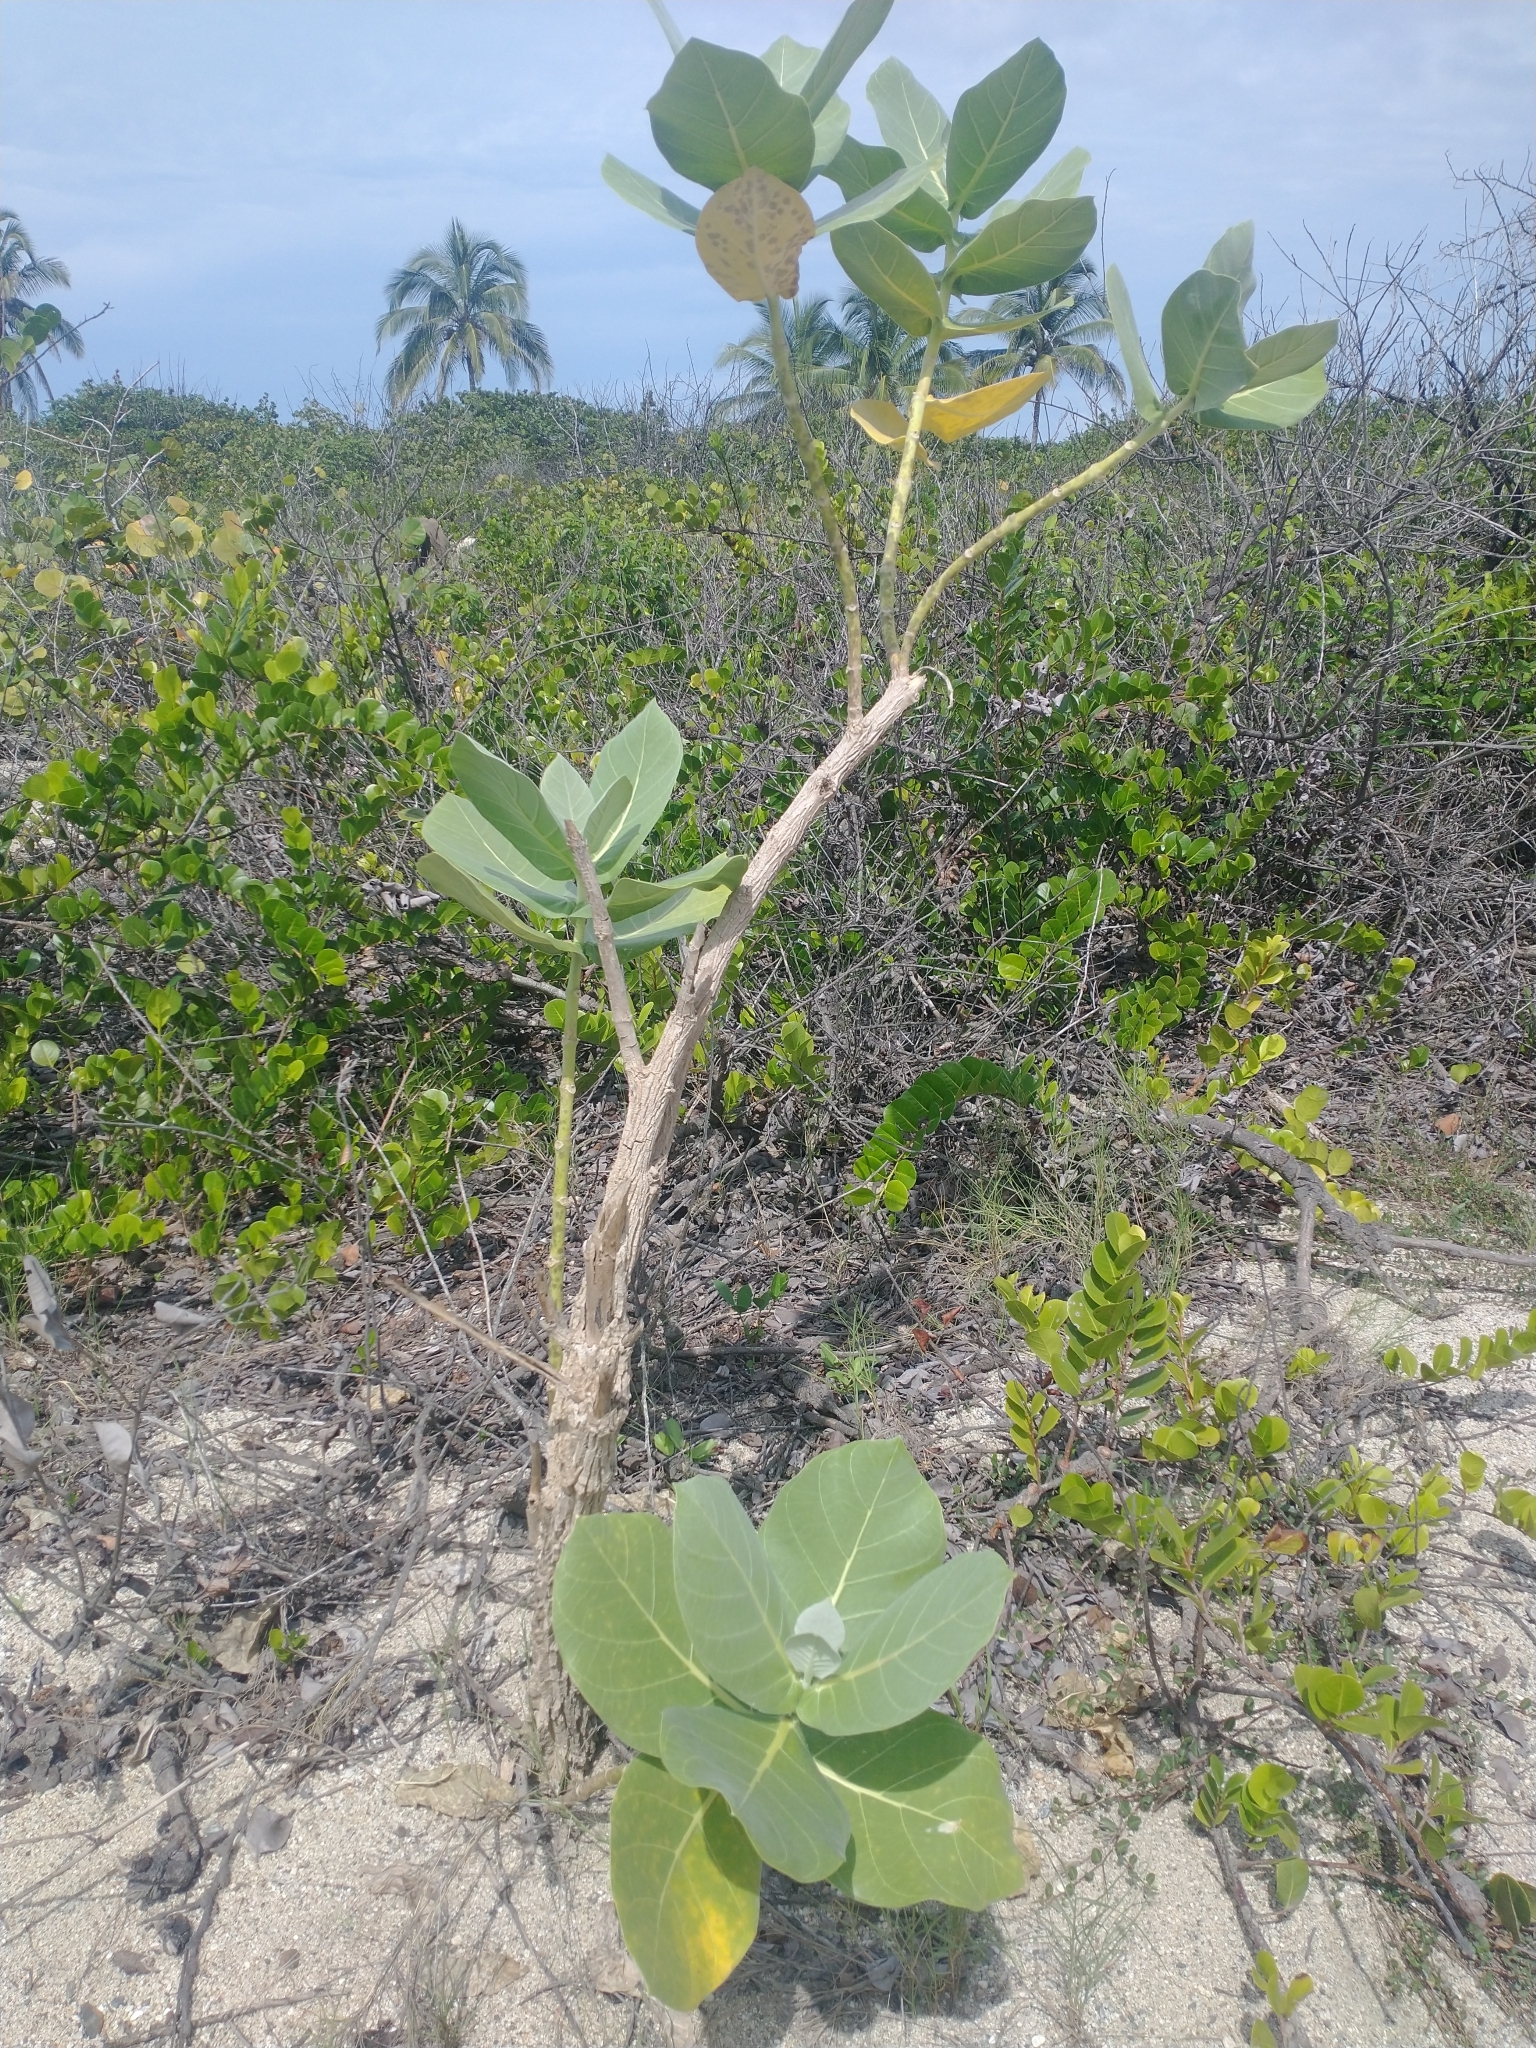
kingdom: Plantae
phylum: Tracheophyta
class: Magnoliopsida
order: Gentianales
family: Apocynaceae
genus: Calotropis
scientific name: Calotropis procera
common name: Roostertree
